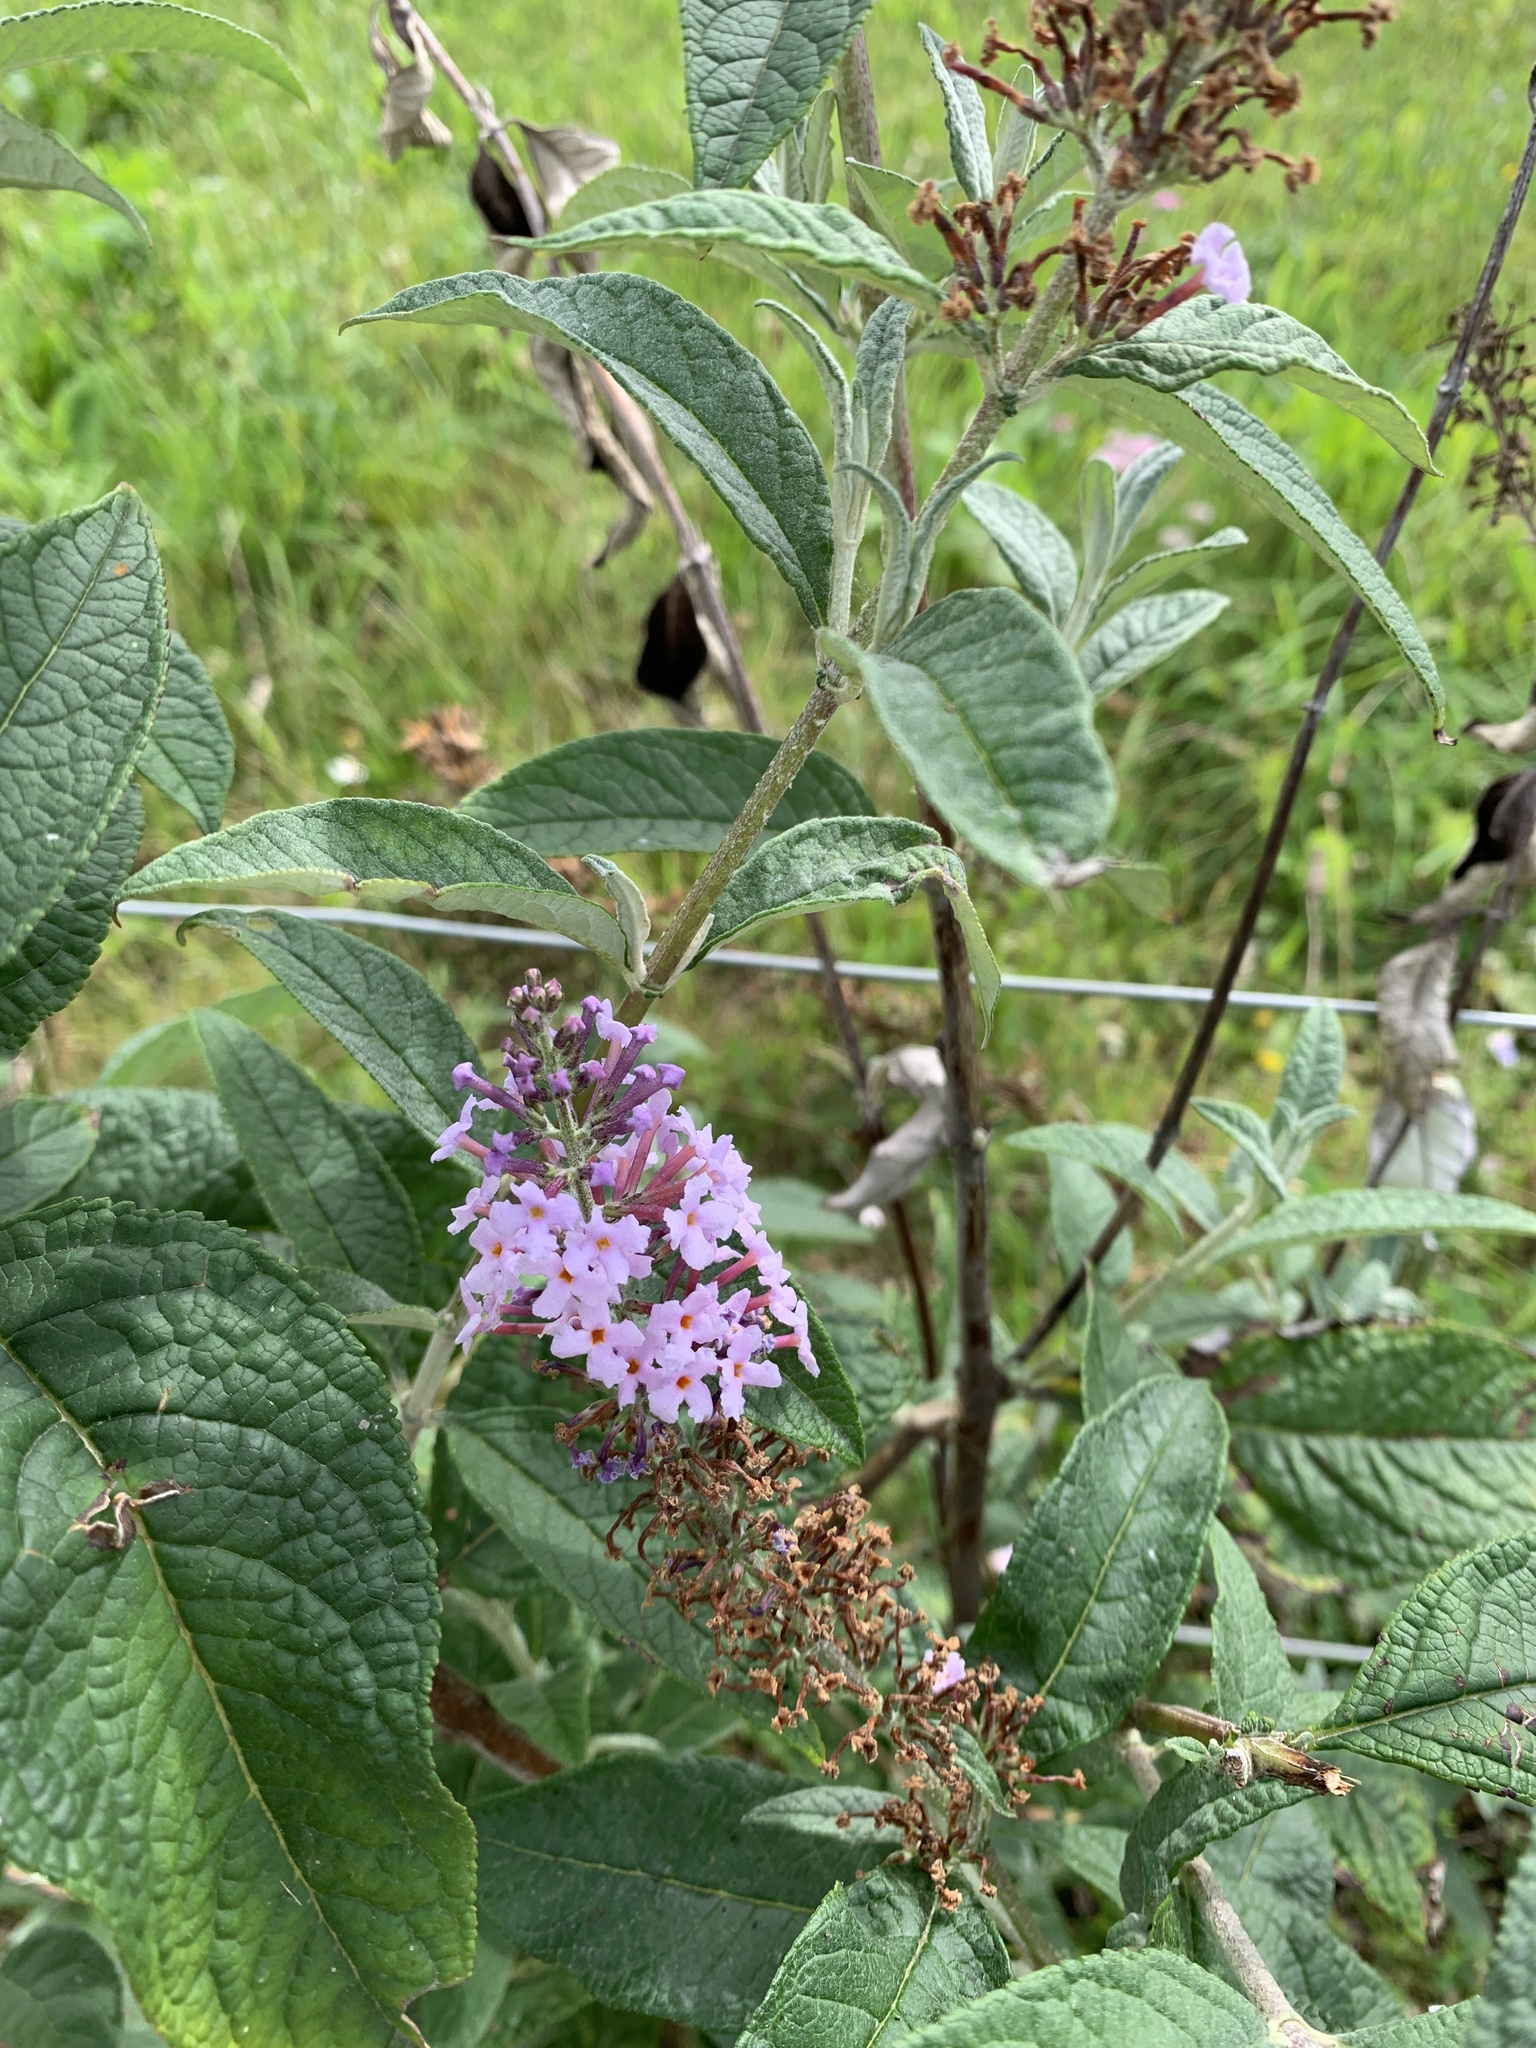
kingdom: Plantae
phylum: Tracheophyta
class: Magnoliopsida
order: Lamiales
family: Scrophulariaceae
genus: Buddleja
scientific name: Buddleja davidii
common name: Butterfly-bush
